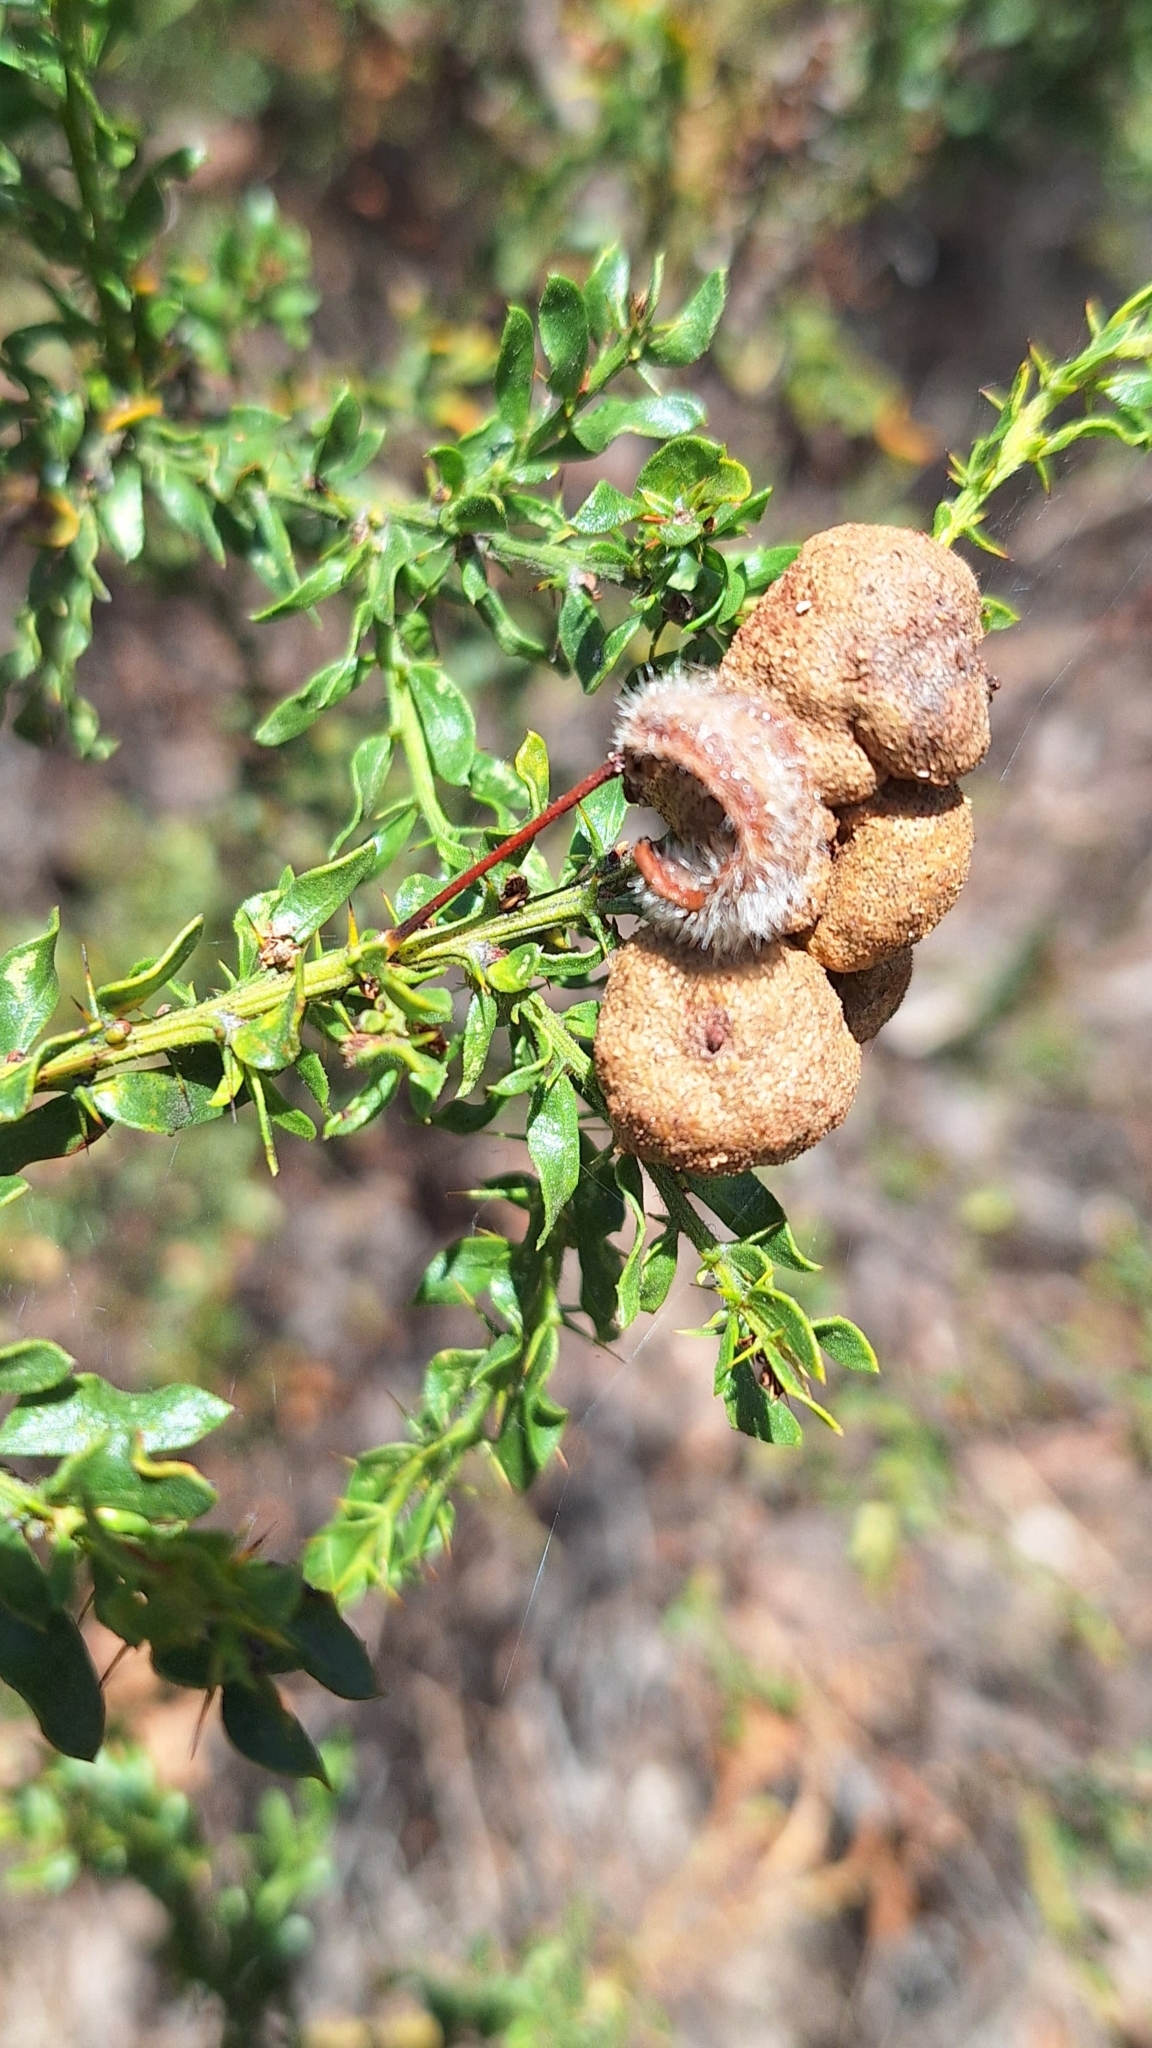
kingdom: Plantae
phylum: Tracheophyta
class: Magnoliopsida
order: Fabales
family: Fabaceae
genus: Acacia
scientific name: Acacia paradoxa
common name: Paradox acacia
